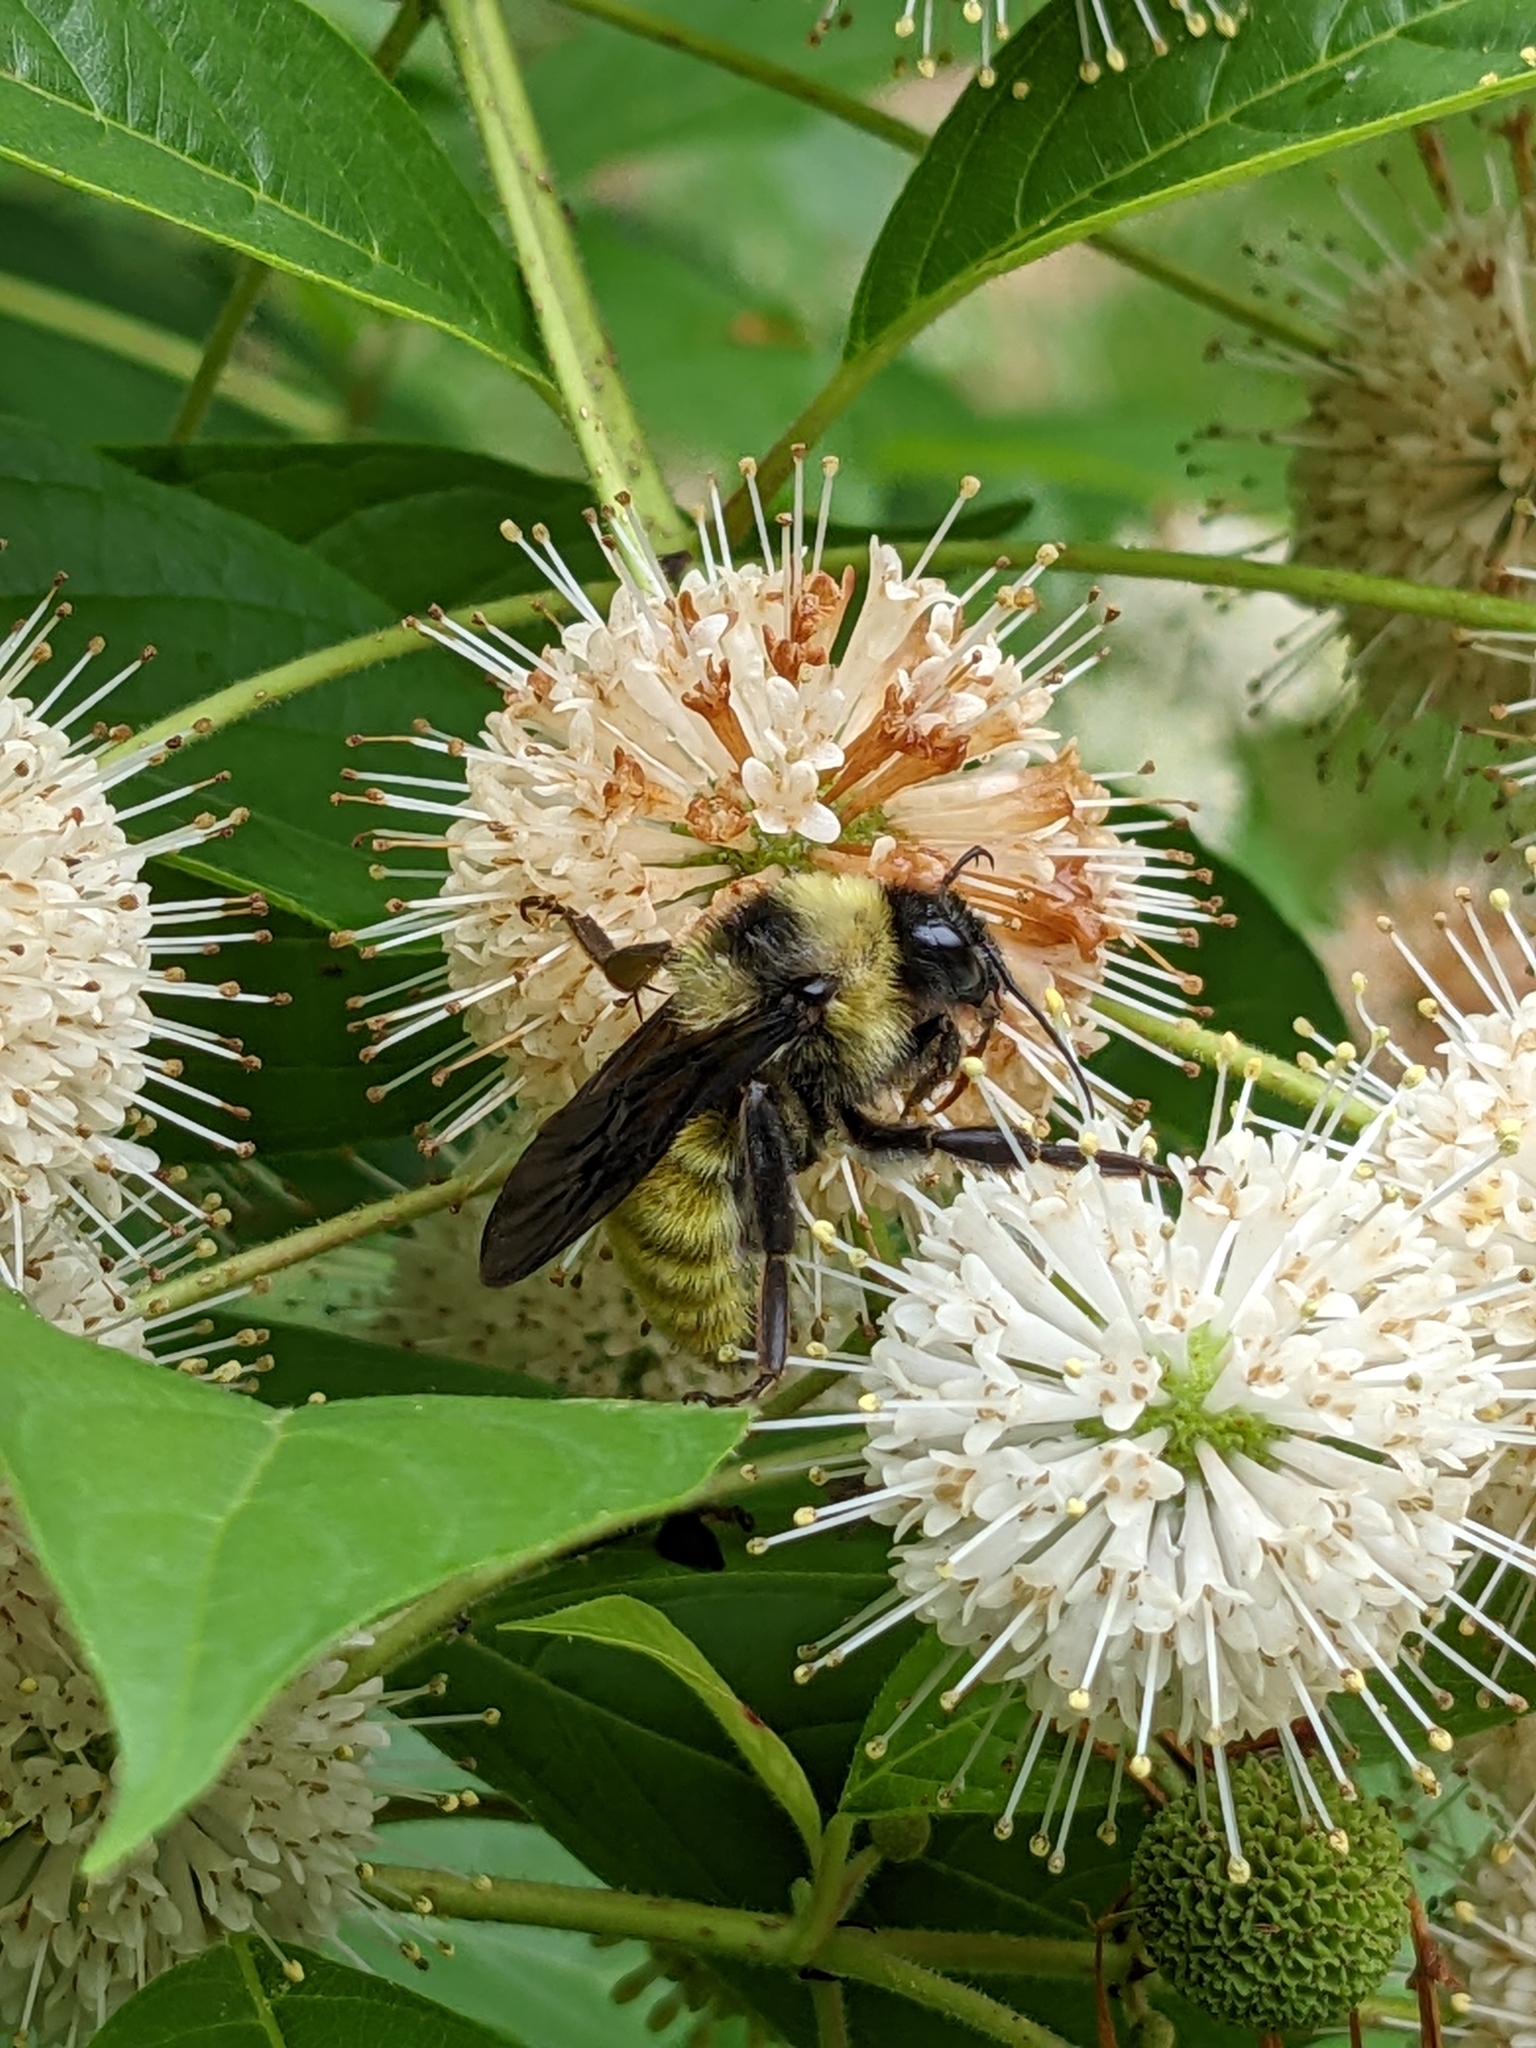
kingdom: Animalia
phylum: Arthropoda
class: Insecta
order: Hymenoptera
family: Apidae
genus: Bombus
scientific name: Bombus pensylvanicus
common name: Bumble bee
